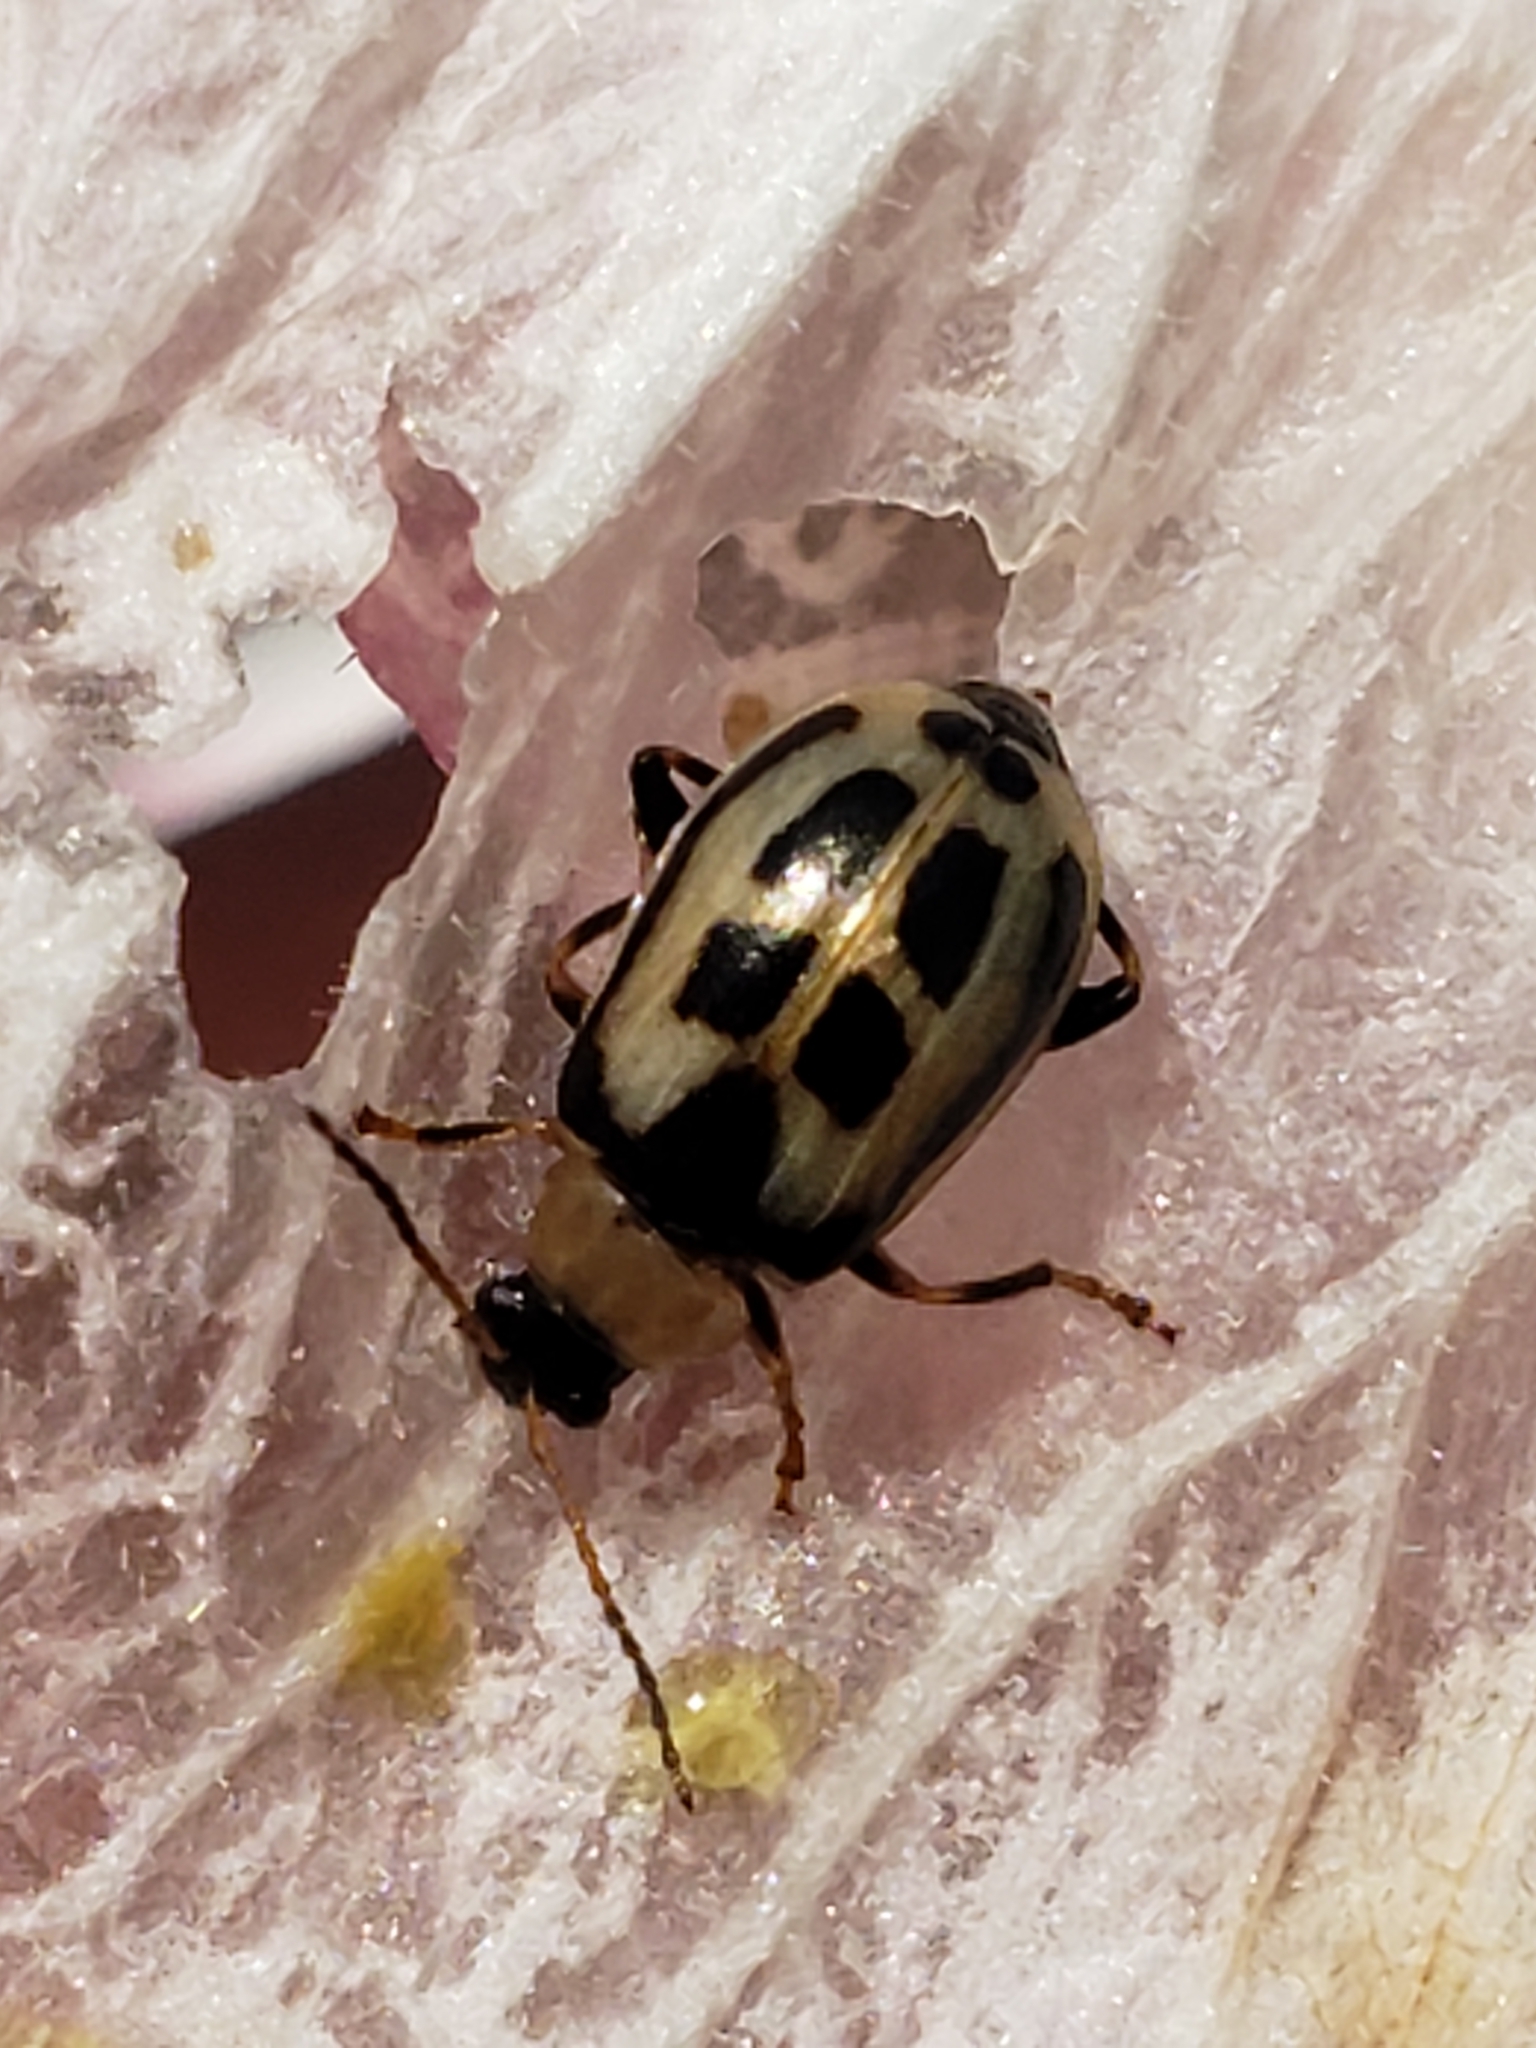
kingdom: Animalia
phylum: Arthropoda
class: Insecta
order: Coleoptera
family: Chrysomelidae
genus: Cerotoma
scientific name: Cerotoma trifurcata
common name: Bean leaf beetle
